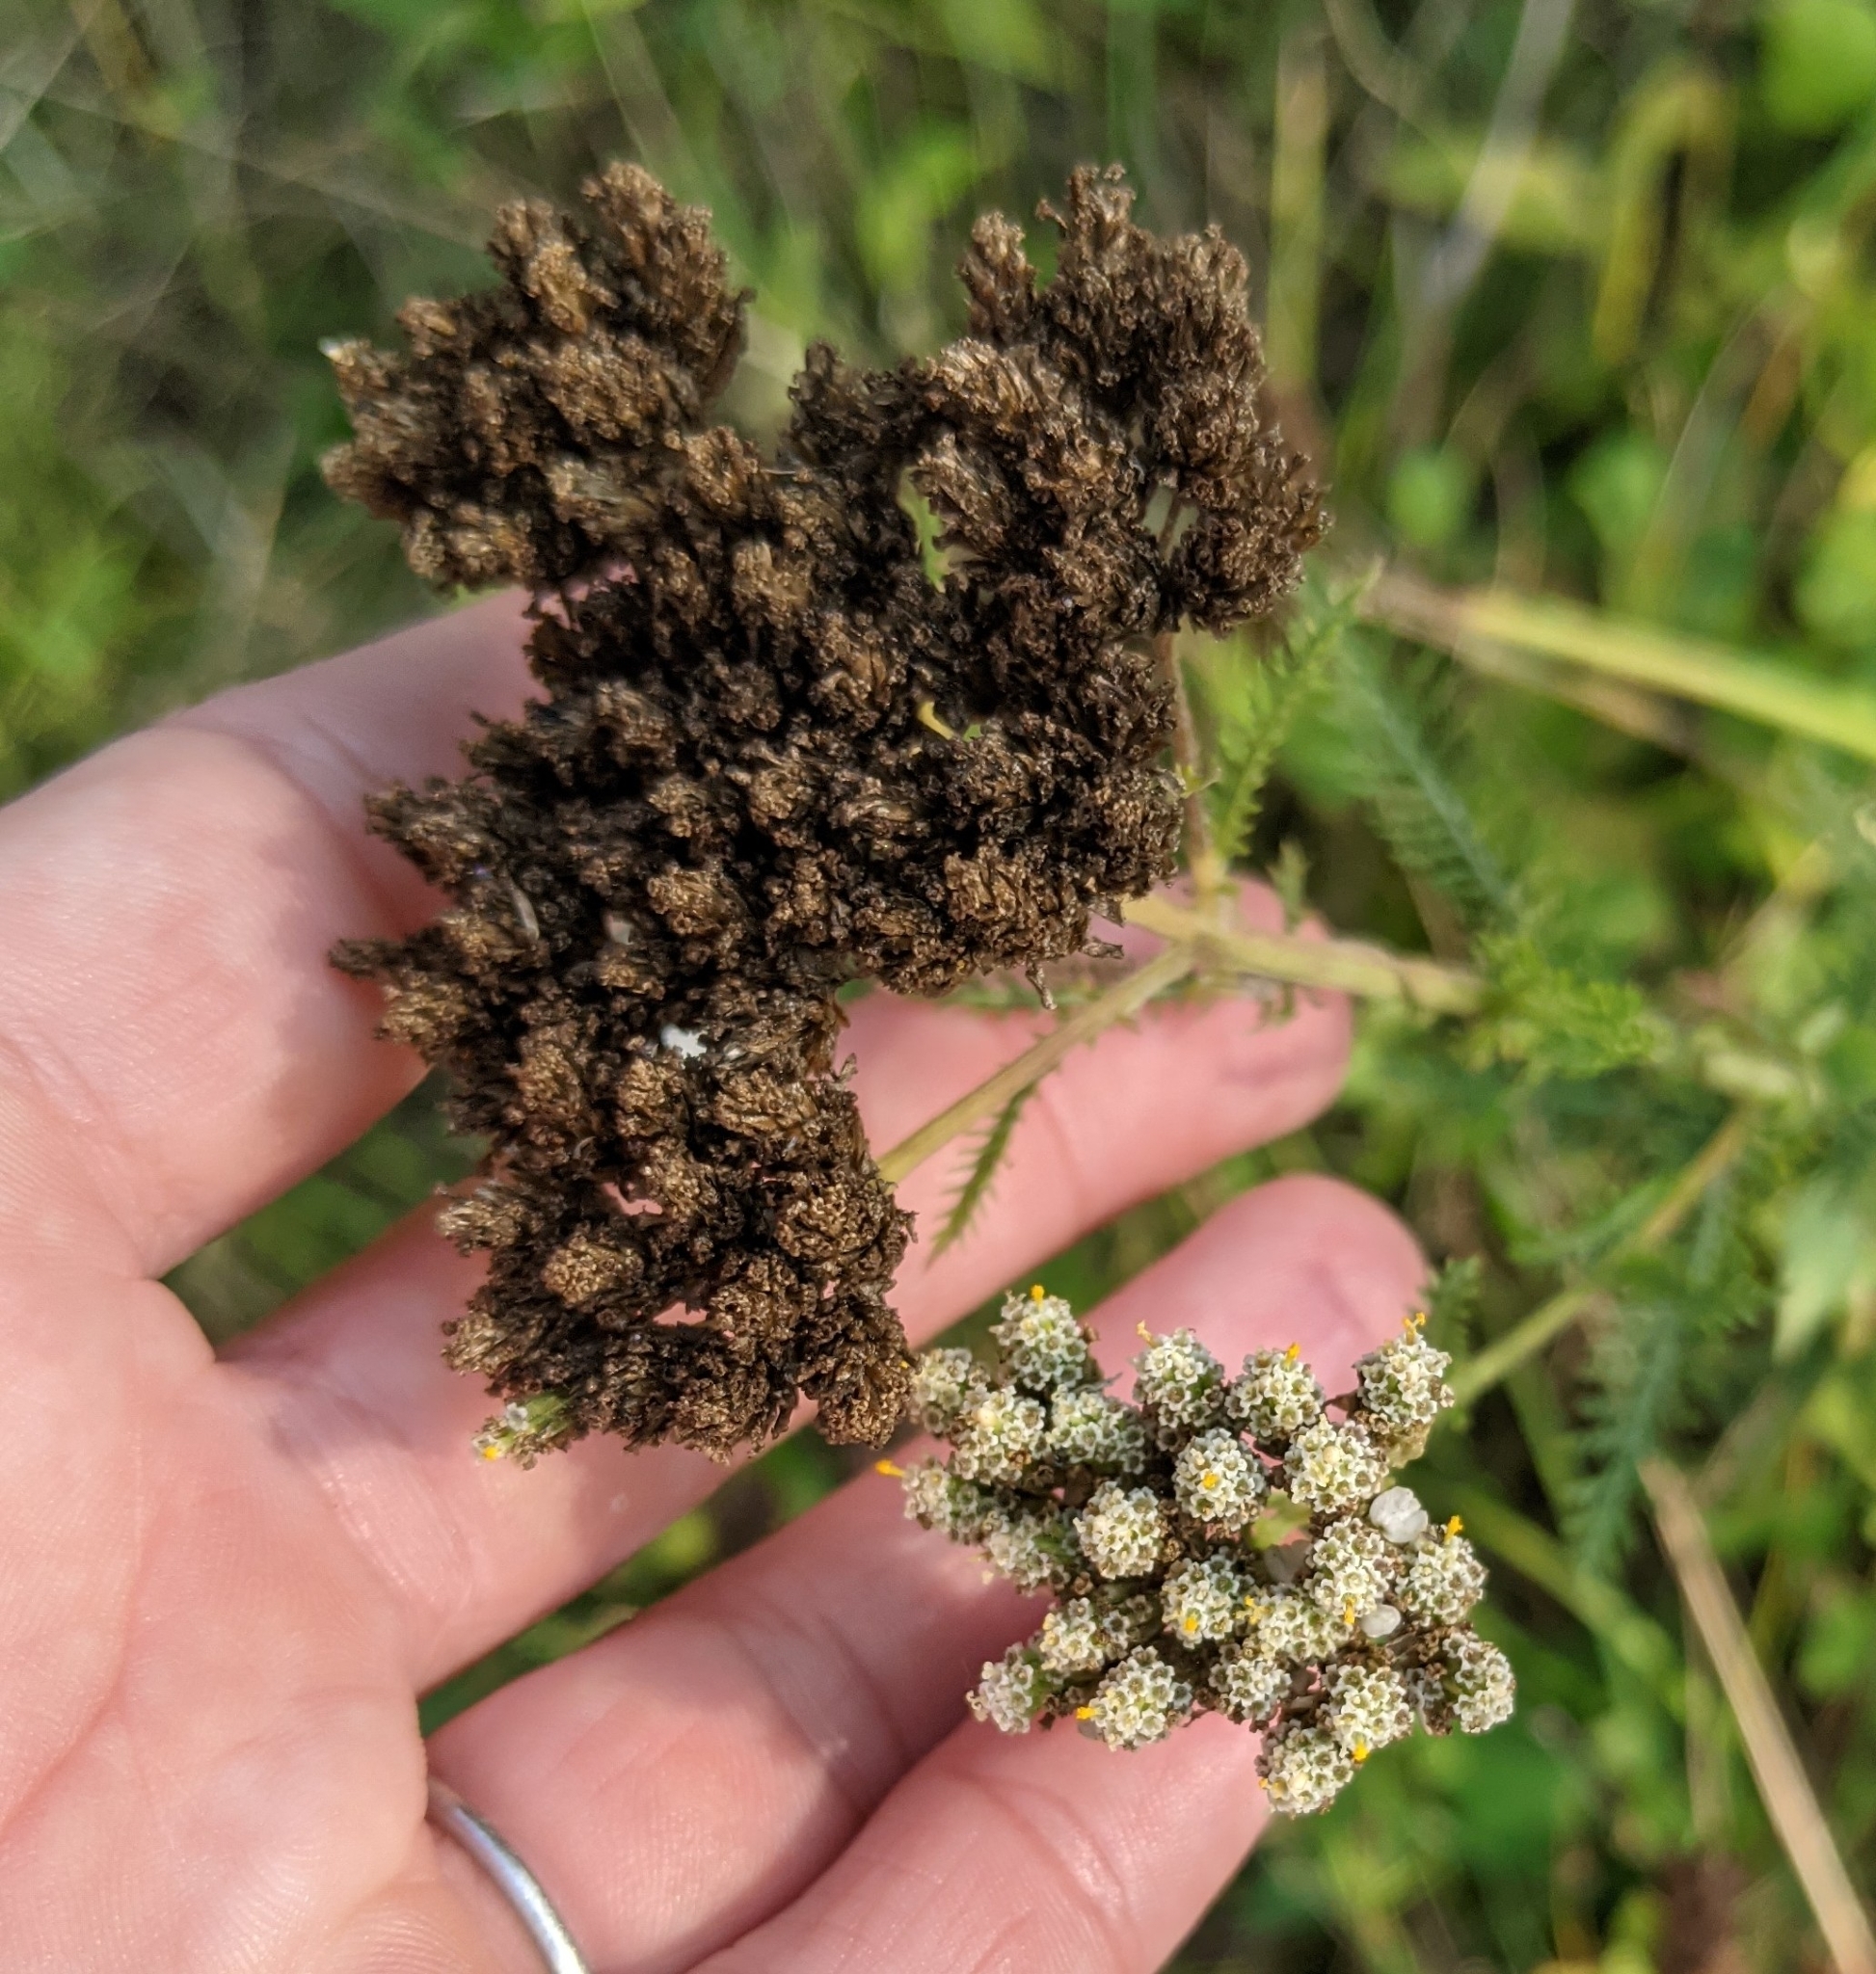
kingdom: Plantae
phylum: Tracheophyta
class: Magnoliopsida
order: Asterales
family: Asteraceae
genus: Achillea
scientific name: Achillea millefolium
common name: Yarrow
